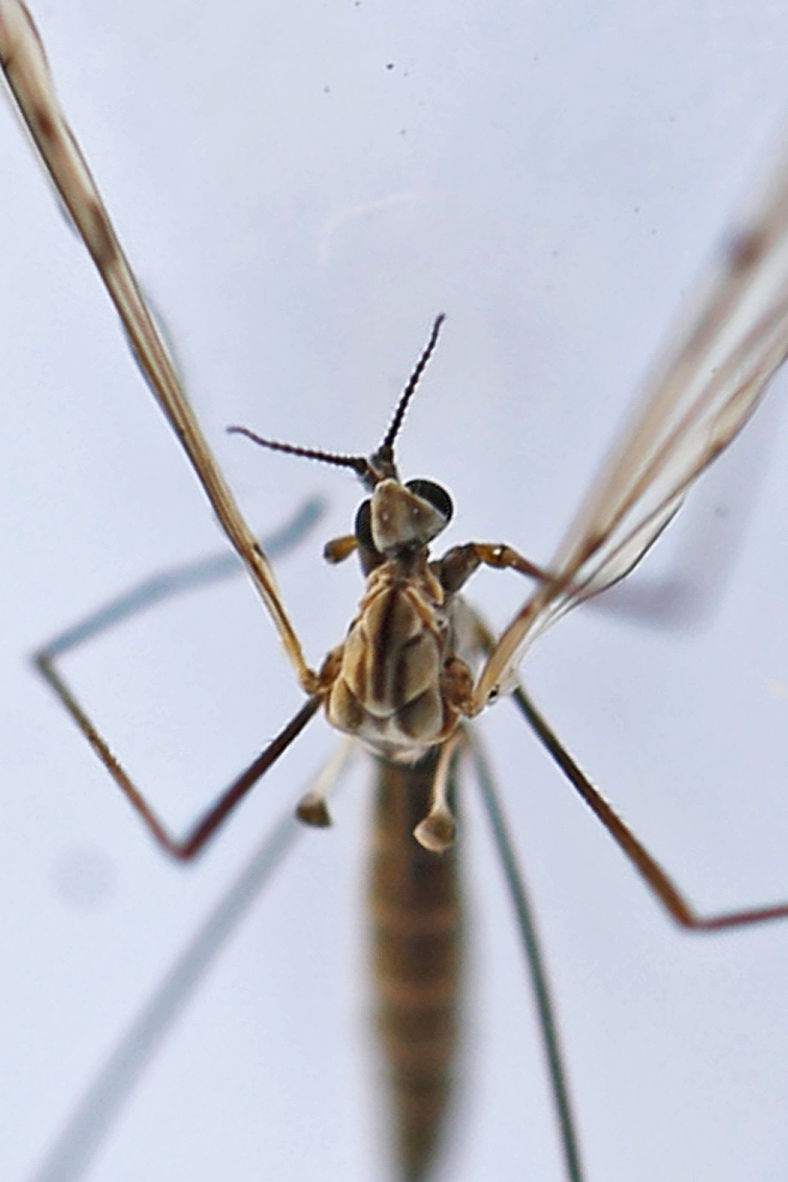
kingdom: Animalia
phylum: Arthropoda
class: Insecta
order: Diptera
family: Limoniidae
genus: Symplecta
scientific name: Symplecta cana
